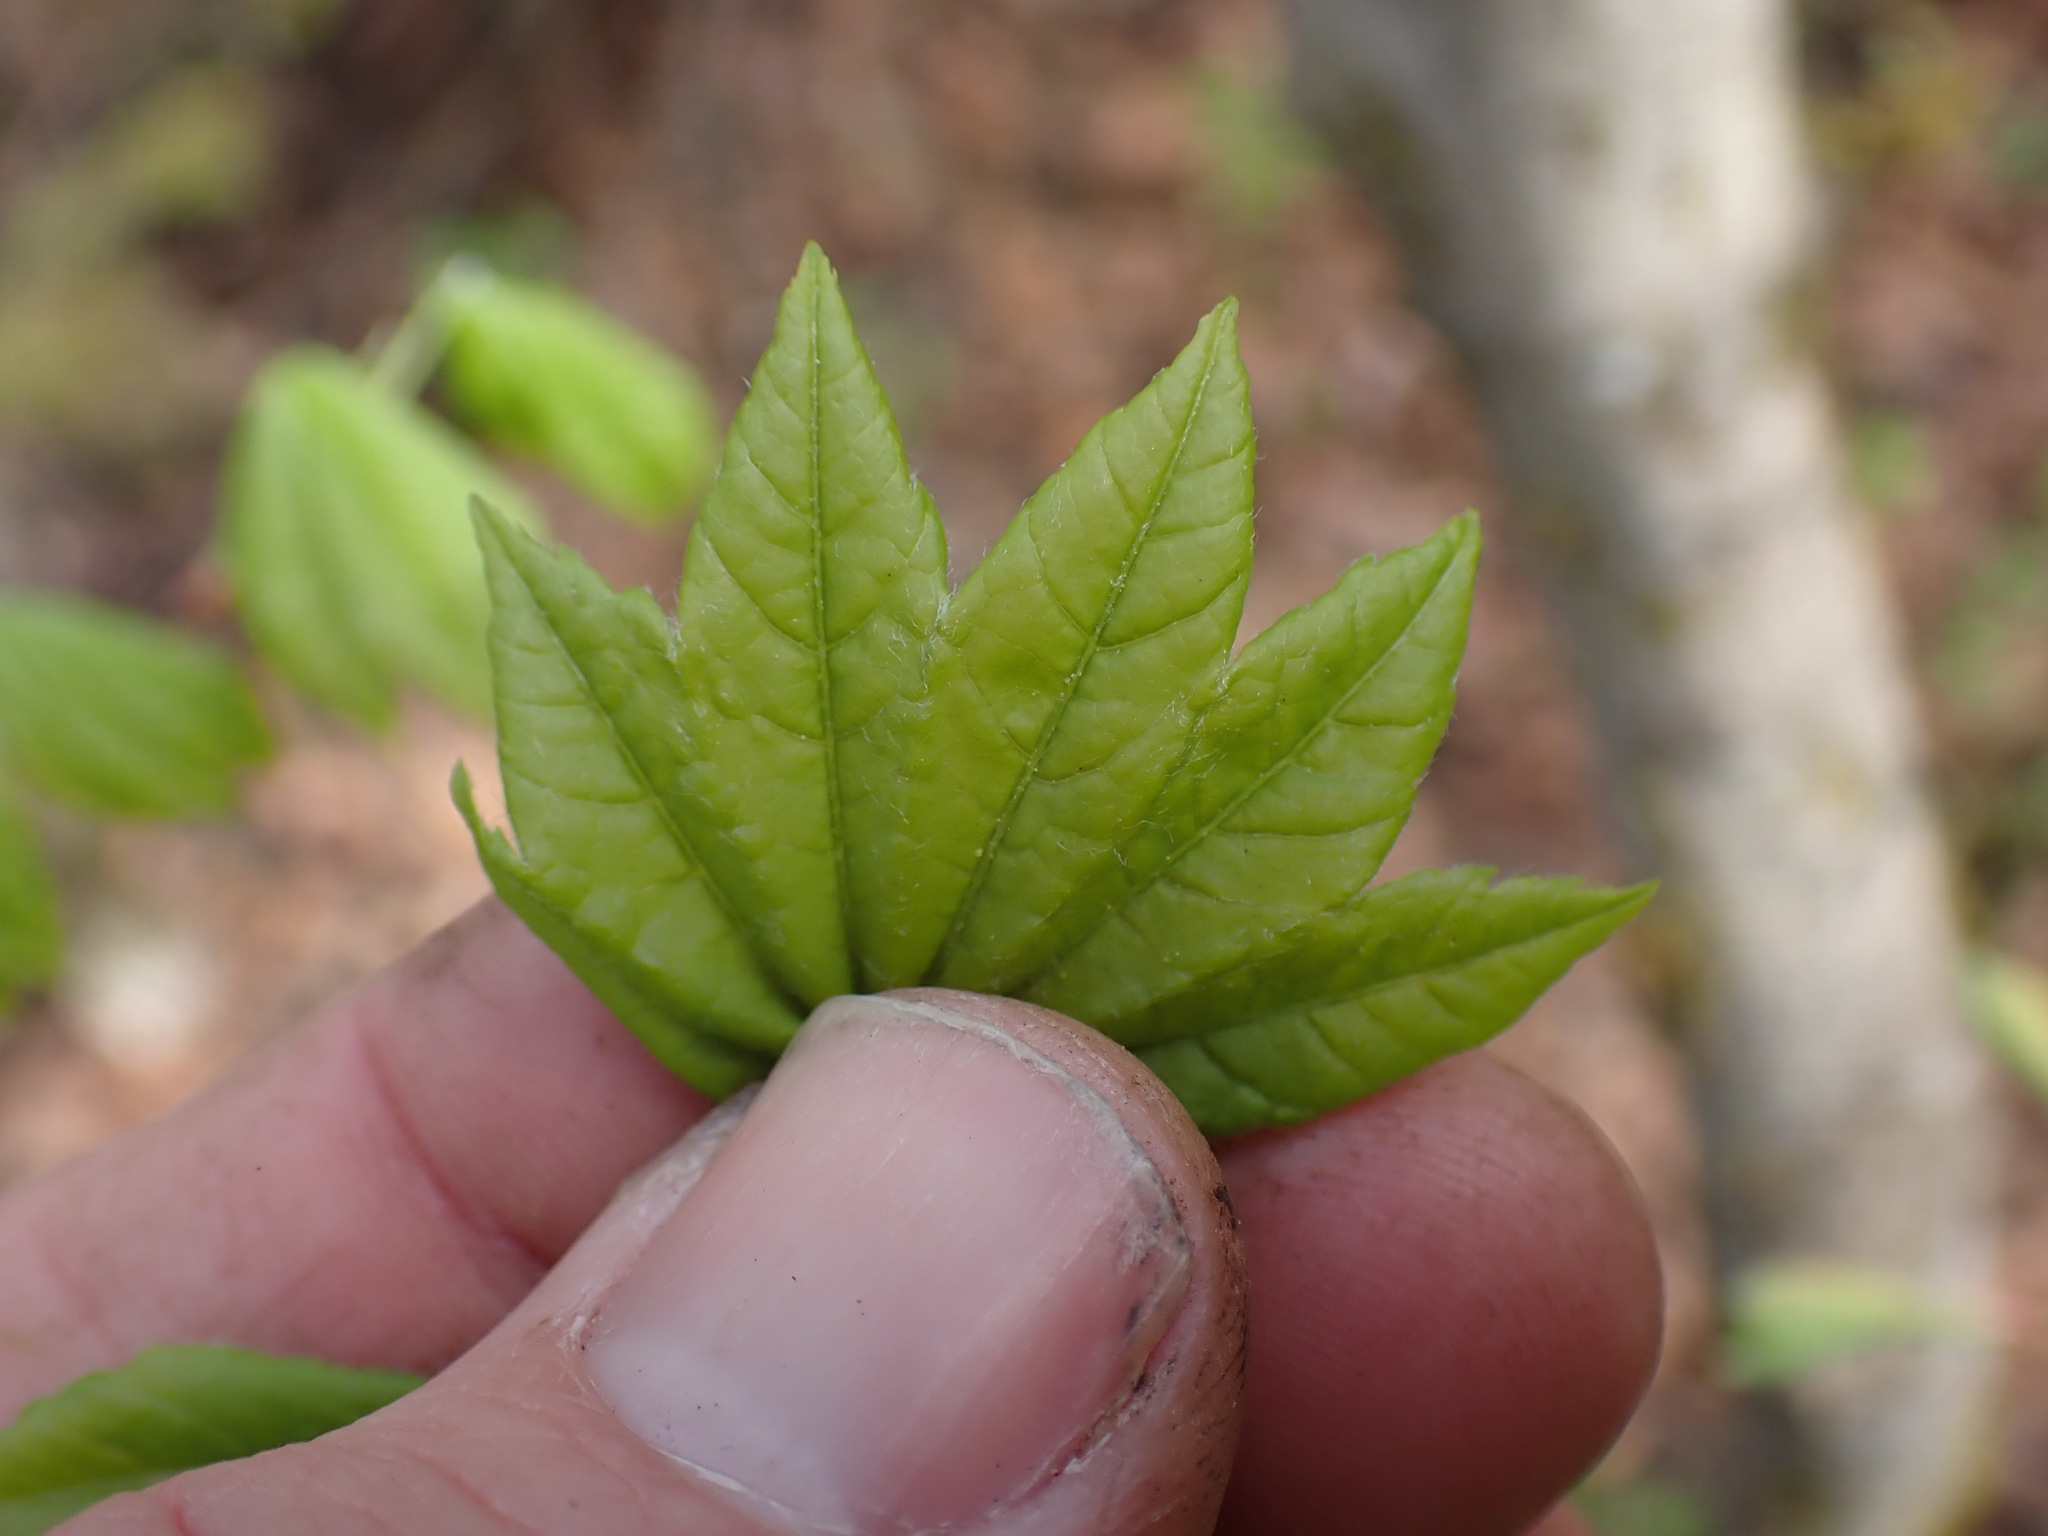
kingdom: Plantae
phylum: Tracheophyta
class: Magnoliopsida
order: Sapindales
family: Sapindaceae
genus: Acer
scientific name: Acer circinatum
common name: Vine maple
